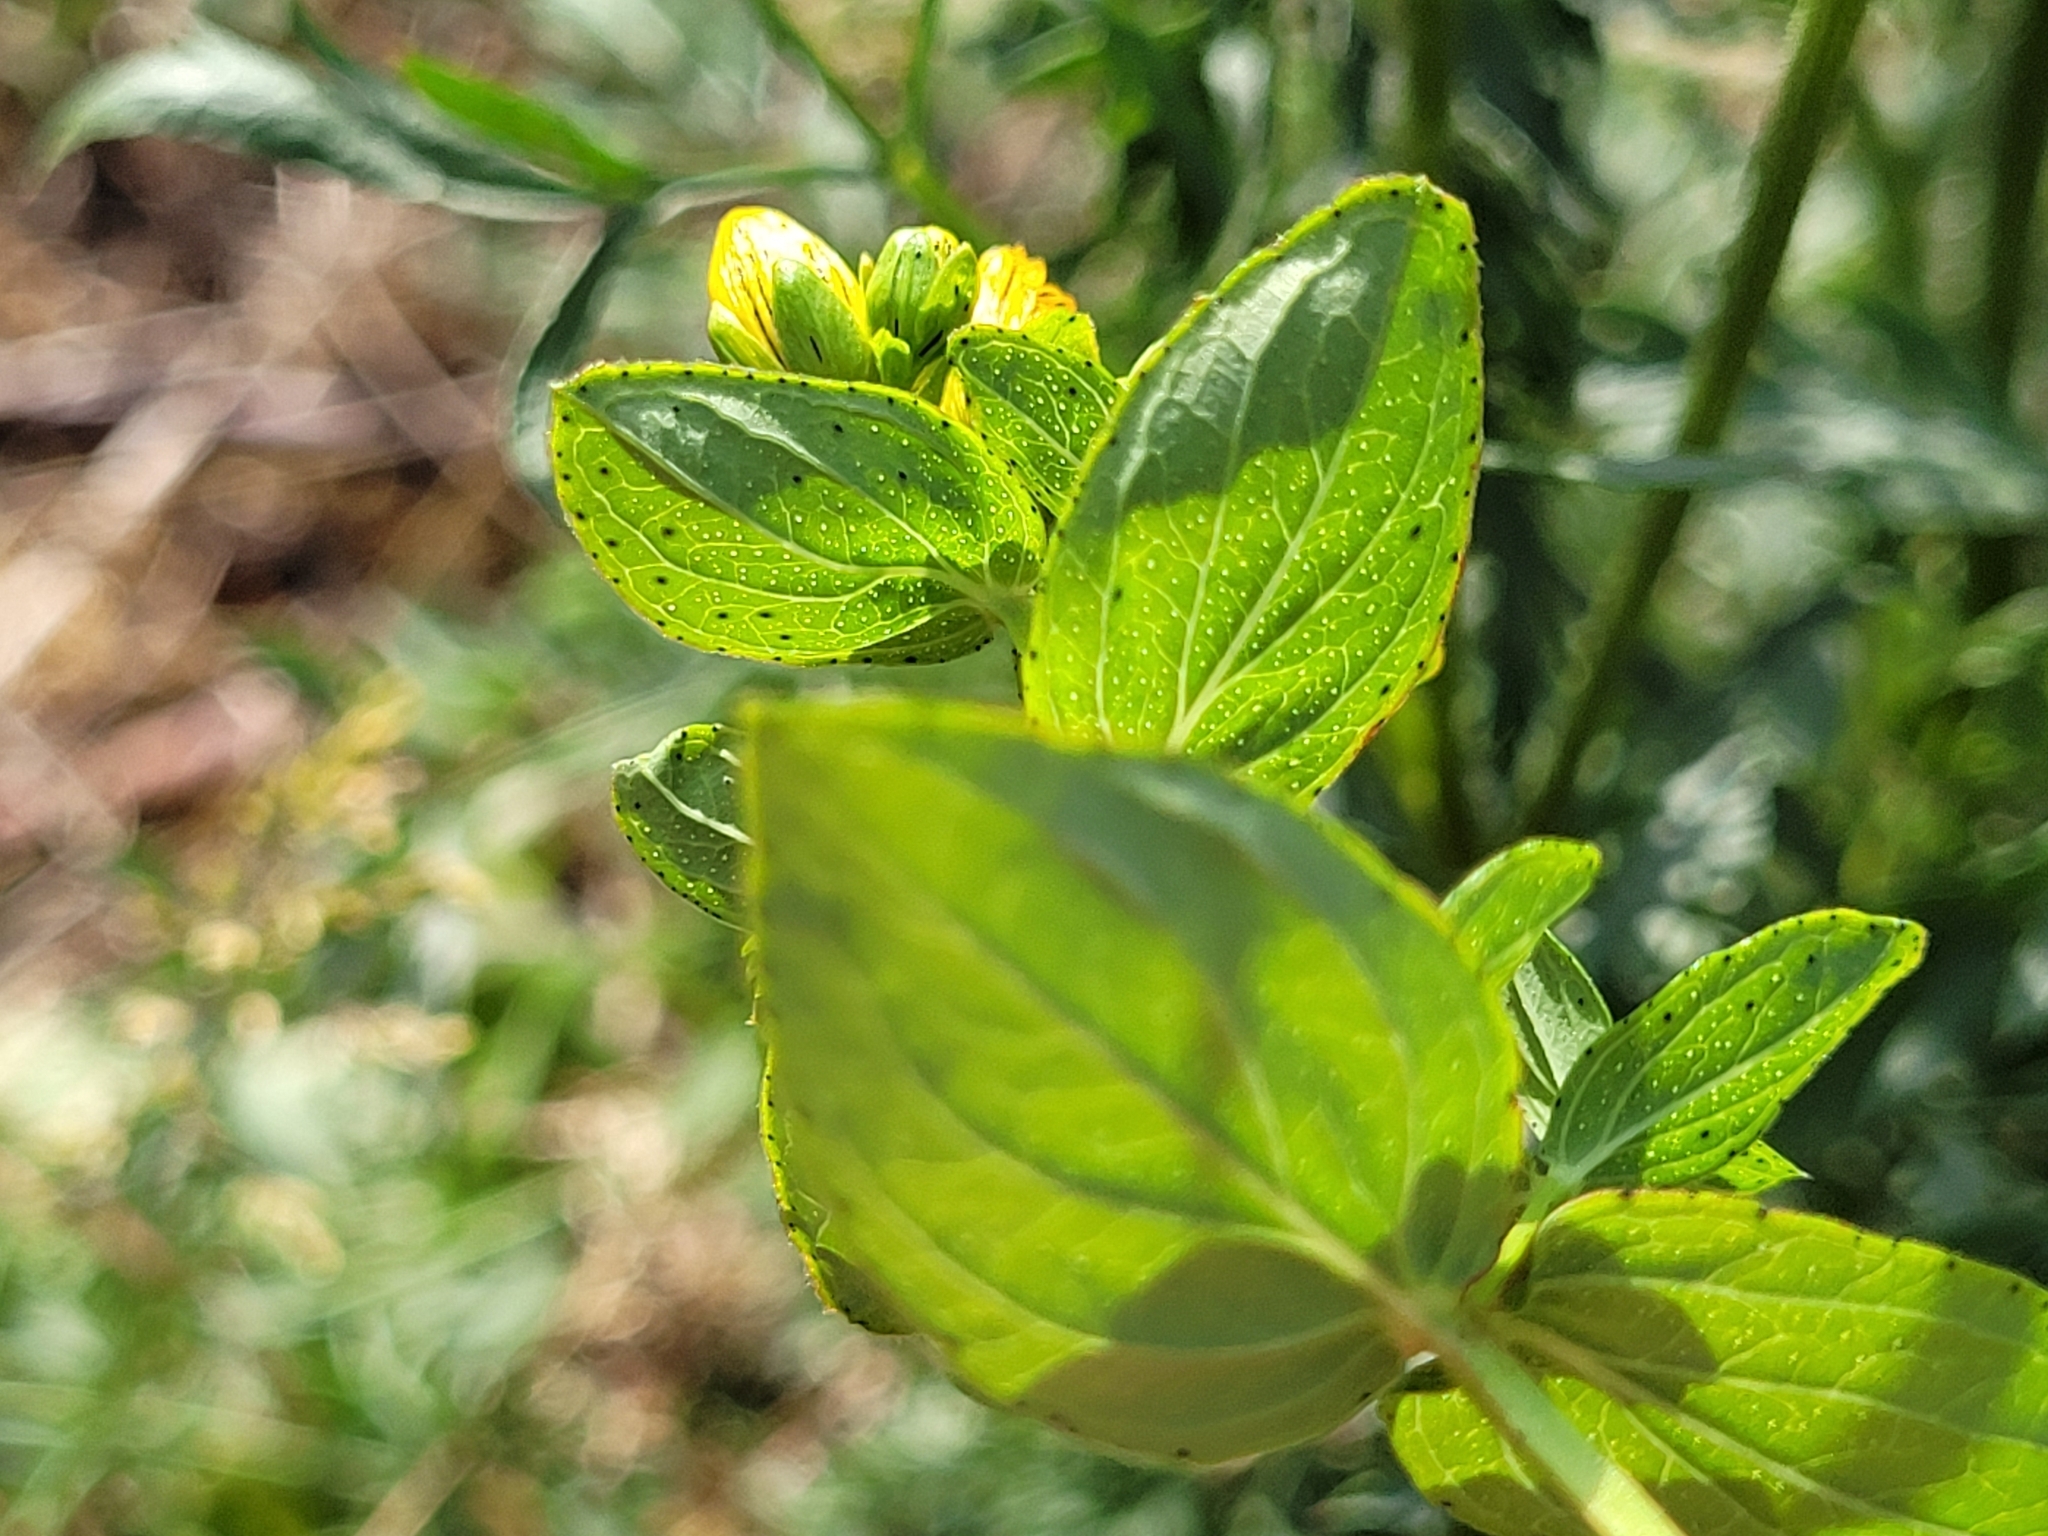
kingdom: Plantae
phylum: Tracheophyta
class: Magnoliopsida
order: Malpighiales
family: Hypericaceae
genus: Hypericum
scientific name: Hypericum maculatum
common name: Imperforate st. john's-wort
